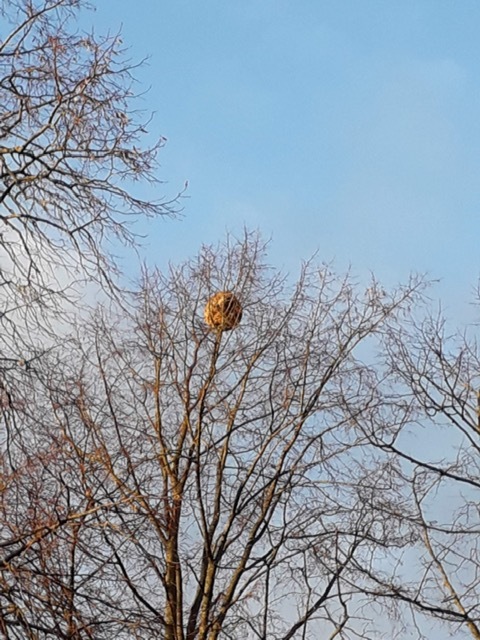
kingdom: Animalia
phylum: Arthropoda
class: Insecta
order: Hymenoptera
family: Vespidae
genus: Vespa
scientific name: Vespa velutina
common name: Asian hornet
